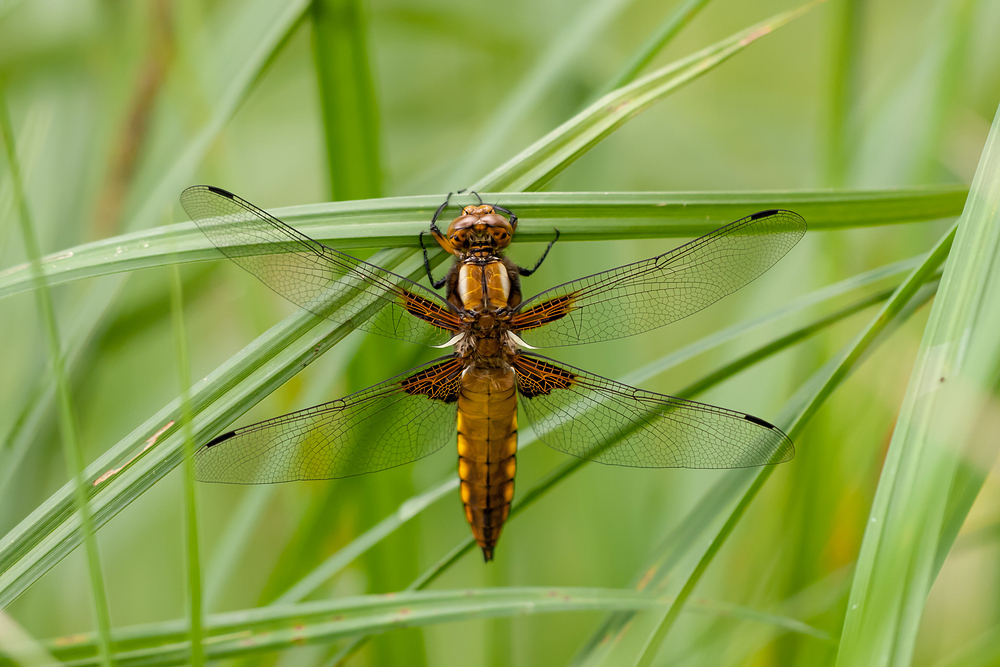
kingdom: Animalia
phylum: Arthropoda
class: Insecta
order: Odonata
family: Libellulidae
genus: Libellula
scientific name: Libellula depressa
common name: Broad-bodied chaser
